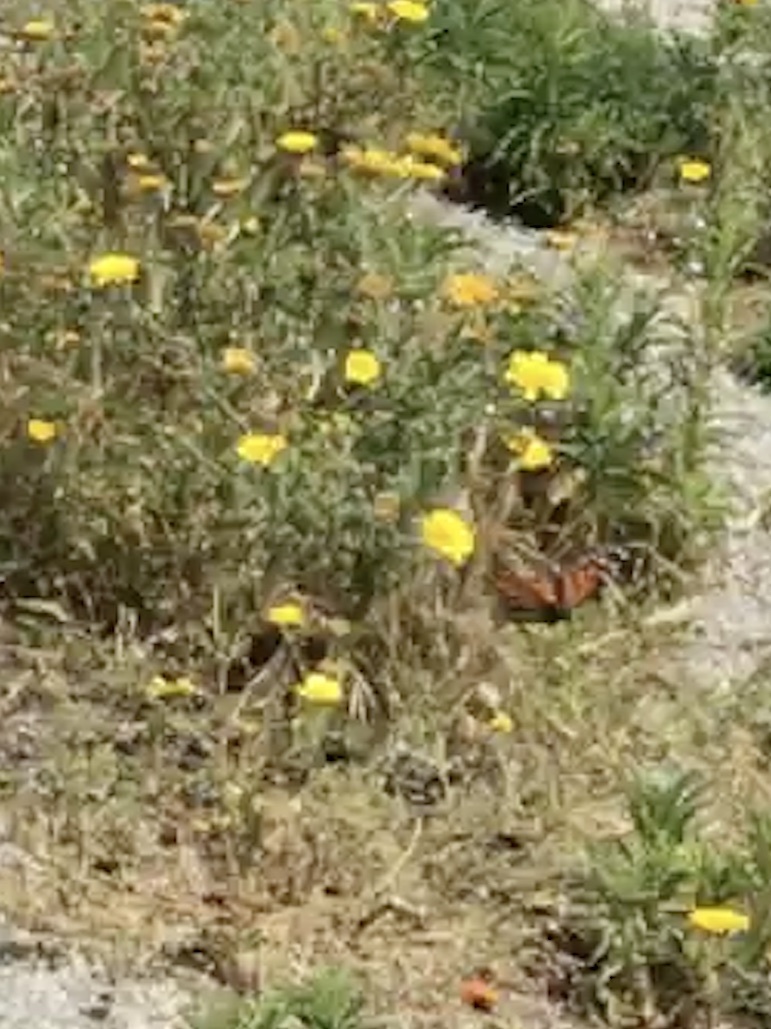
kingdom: Animalia
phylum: Arthropoda
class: Insecta
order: Lepidoptera
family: Nymphalidae
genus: Danaus
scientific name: Danaus plexippus
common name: Monarch
